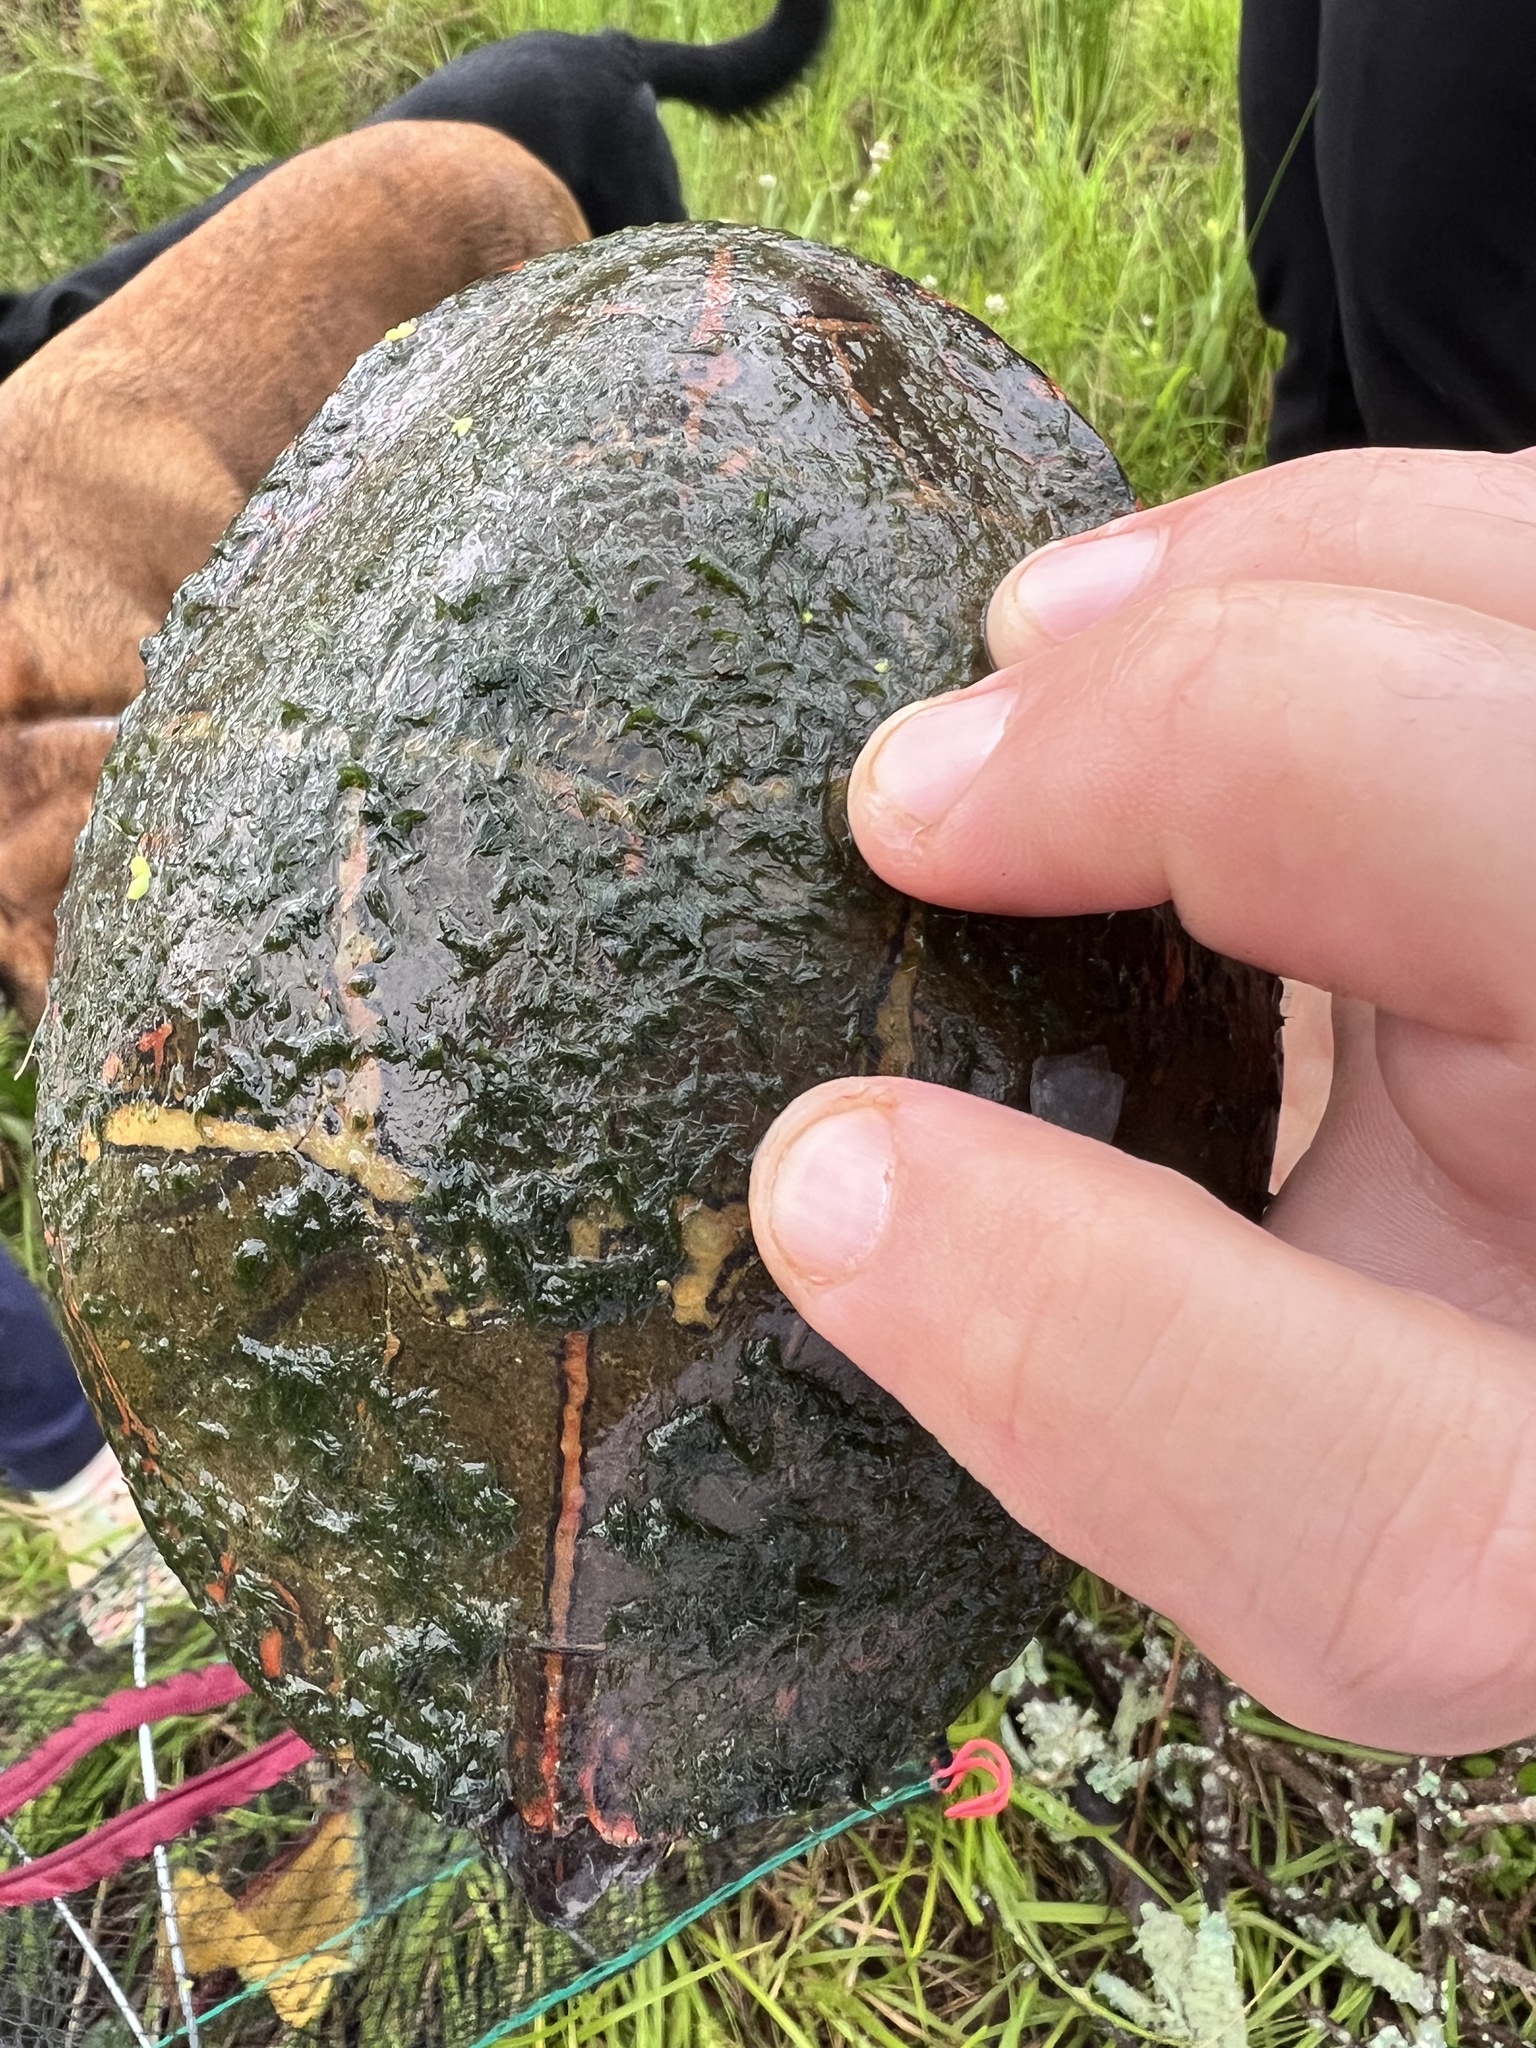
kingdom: Animalia
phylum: Chordata
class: Testudines
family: Emydidae
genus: Chrysemys
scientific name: Chrysemys picta
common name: Painted turtle
